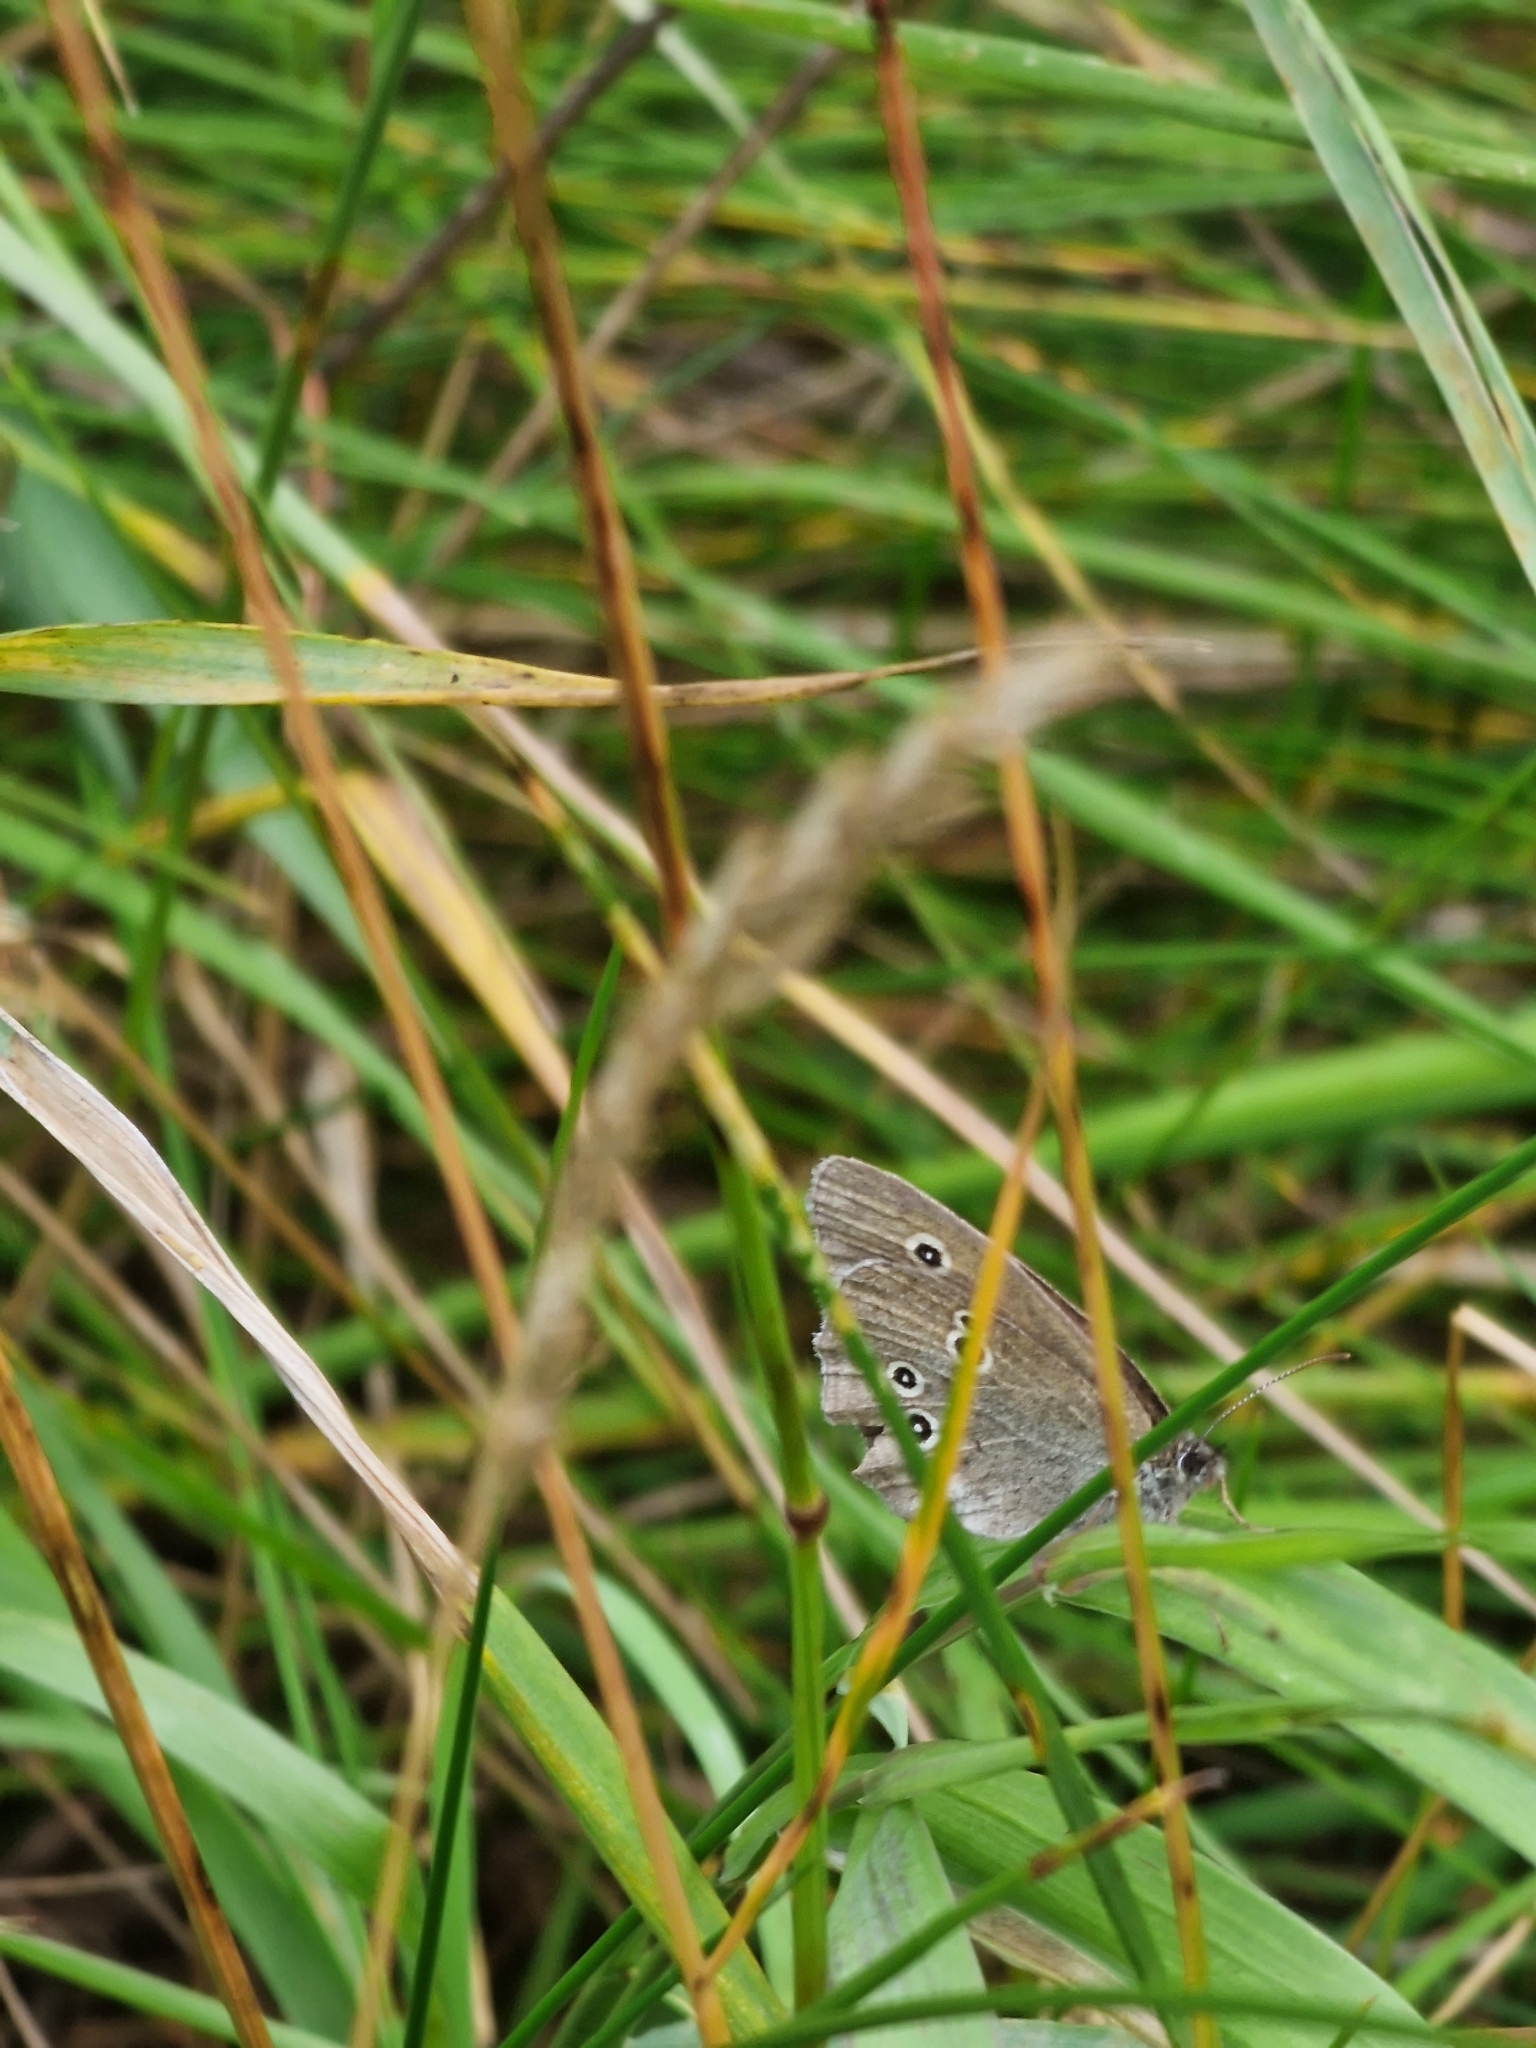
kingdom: Animalia
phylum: Arthropoda
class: Insecta
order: Lepidoptera
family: Nymphalidae
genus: Aphantopus
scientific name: Aphantopus hyperantus
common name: Ringlet
